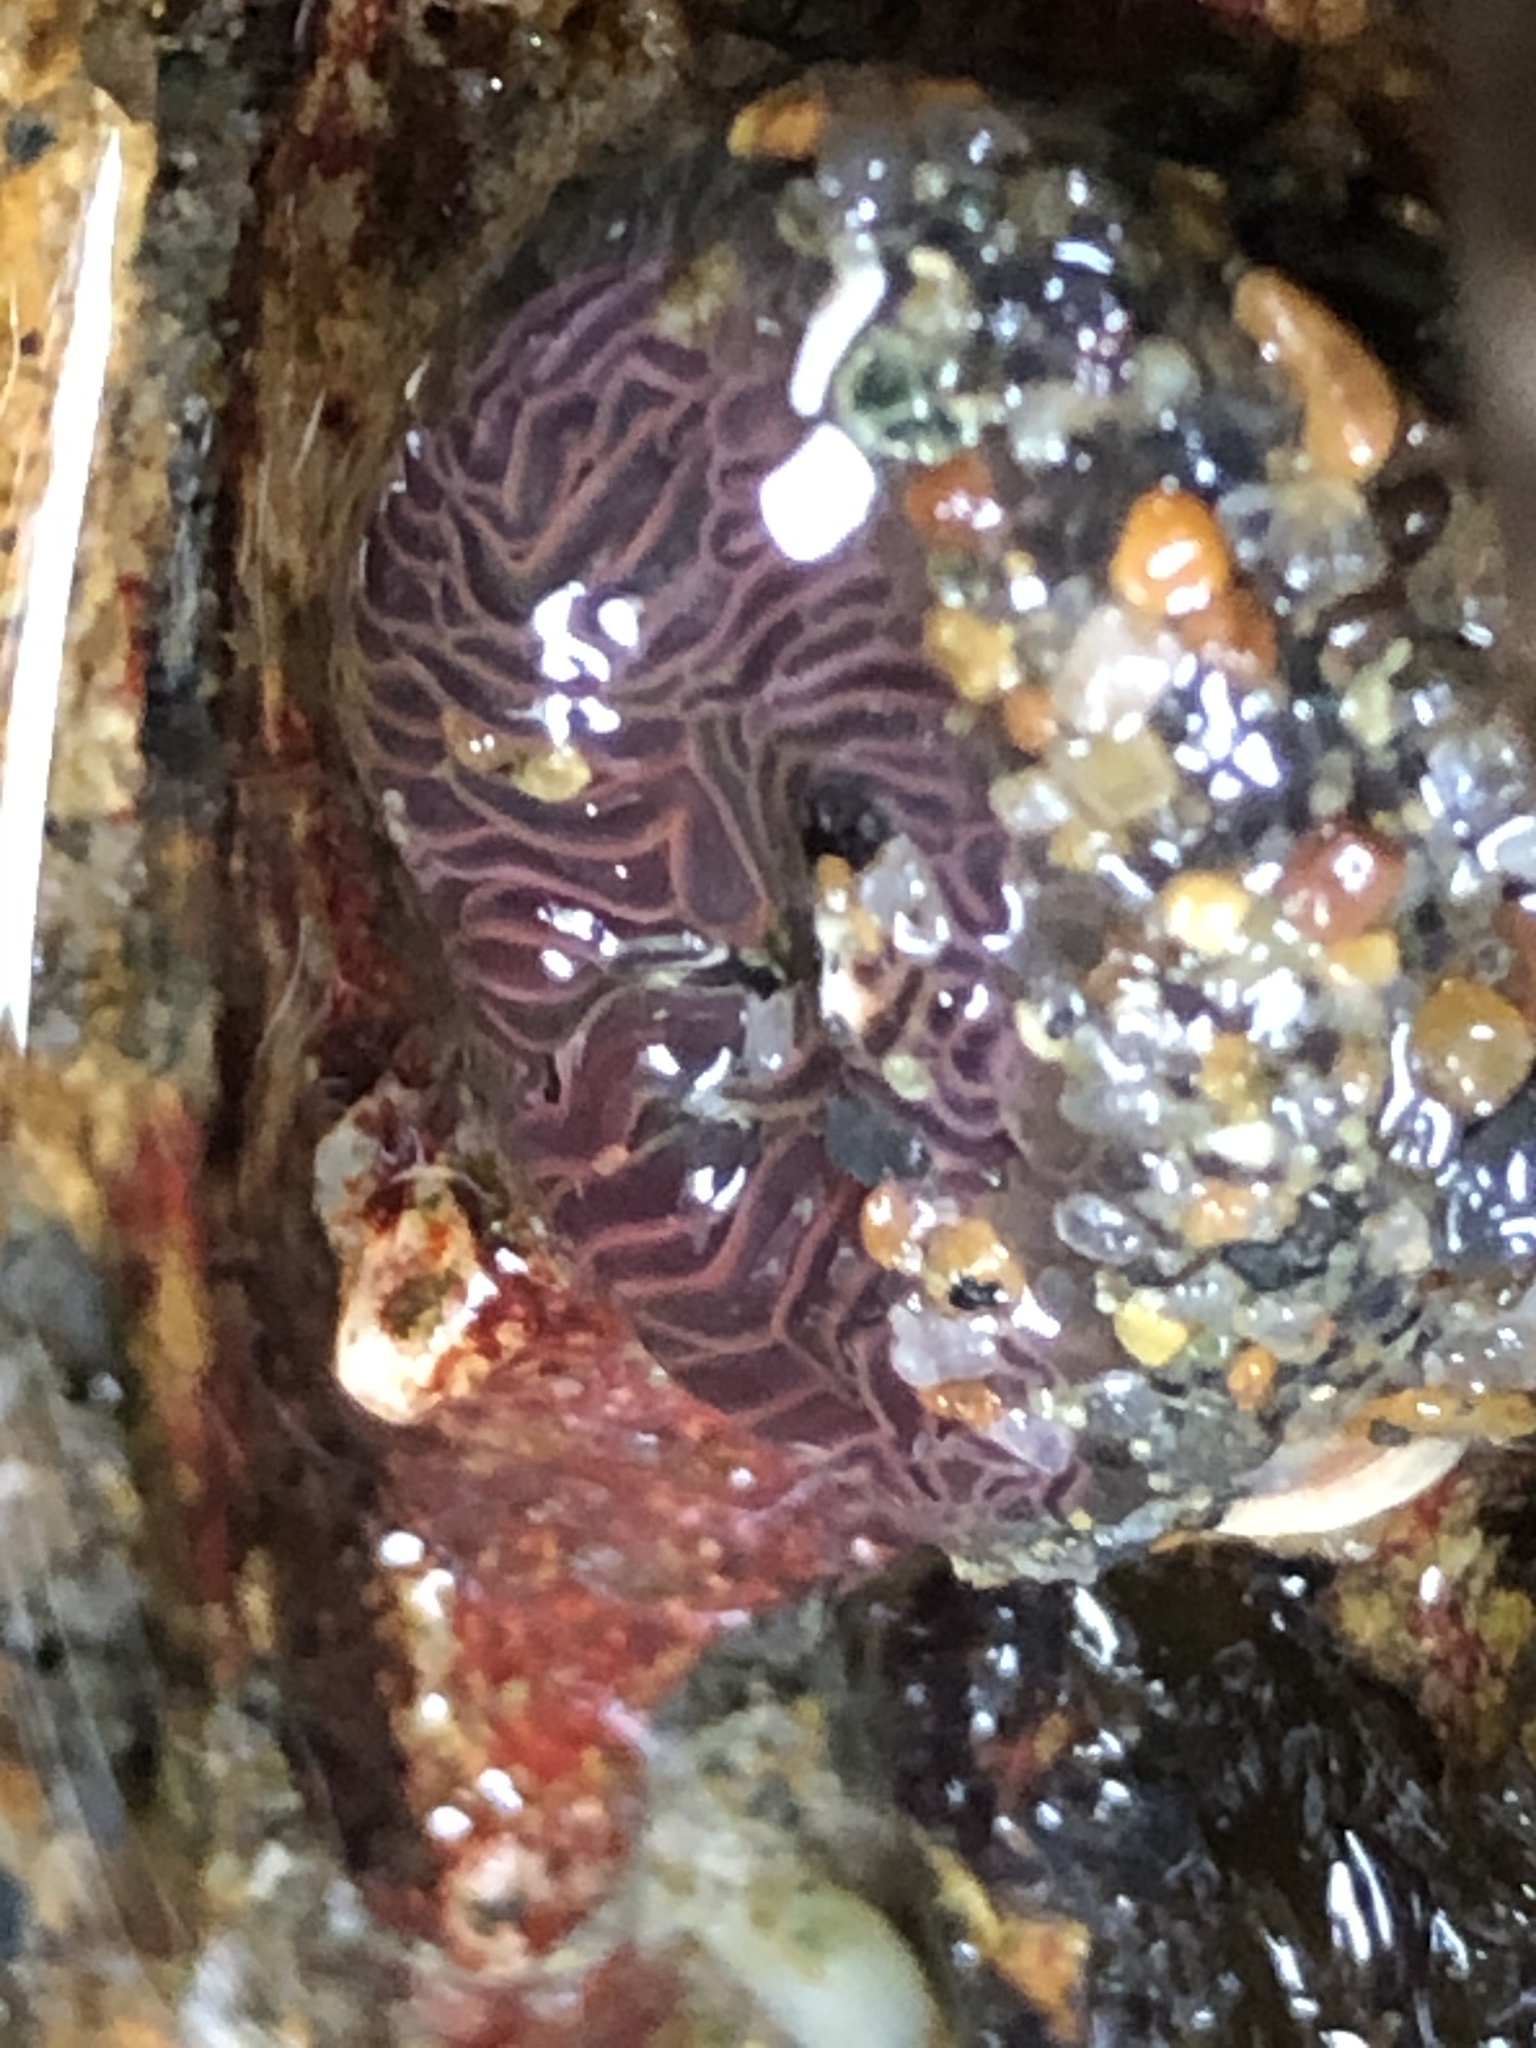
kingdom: Animalia
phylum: Cnidaria
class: Anthozoa
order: Actiniaria
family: Actiniidae
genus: Anthopleura
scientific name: Anthopleura artemisia
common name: Buried sea anemone
